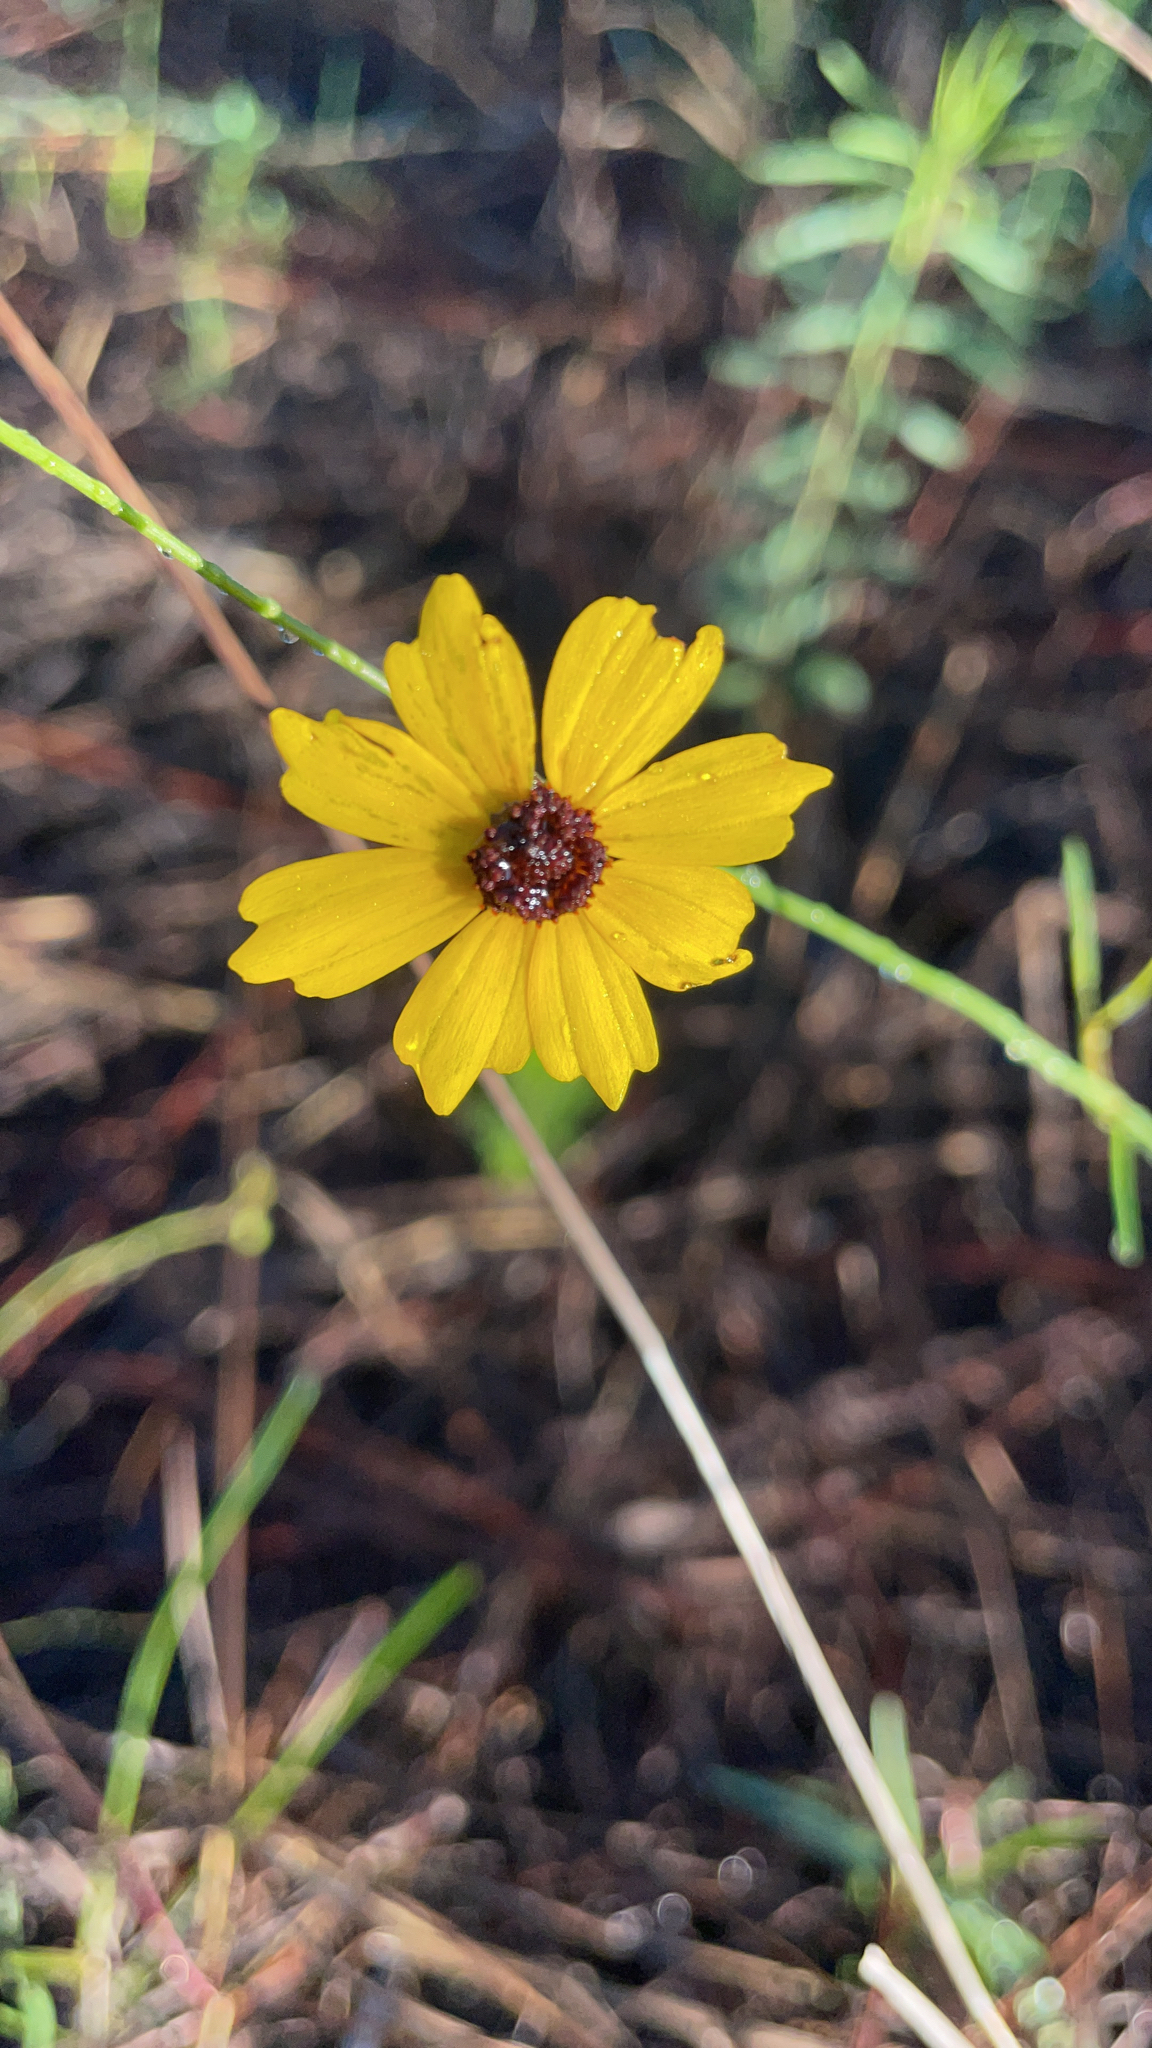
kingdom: Plantae
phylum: Tracheophyta
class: Magnoliopsida
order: Asterales
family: Asteraceae
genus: Coreopsis
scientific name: Coreopsis leavenworthii
